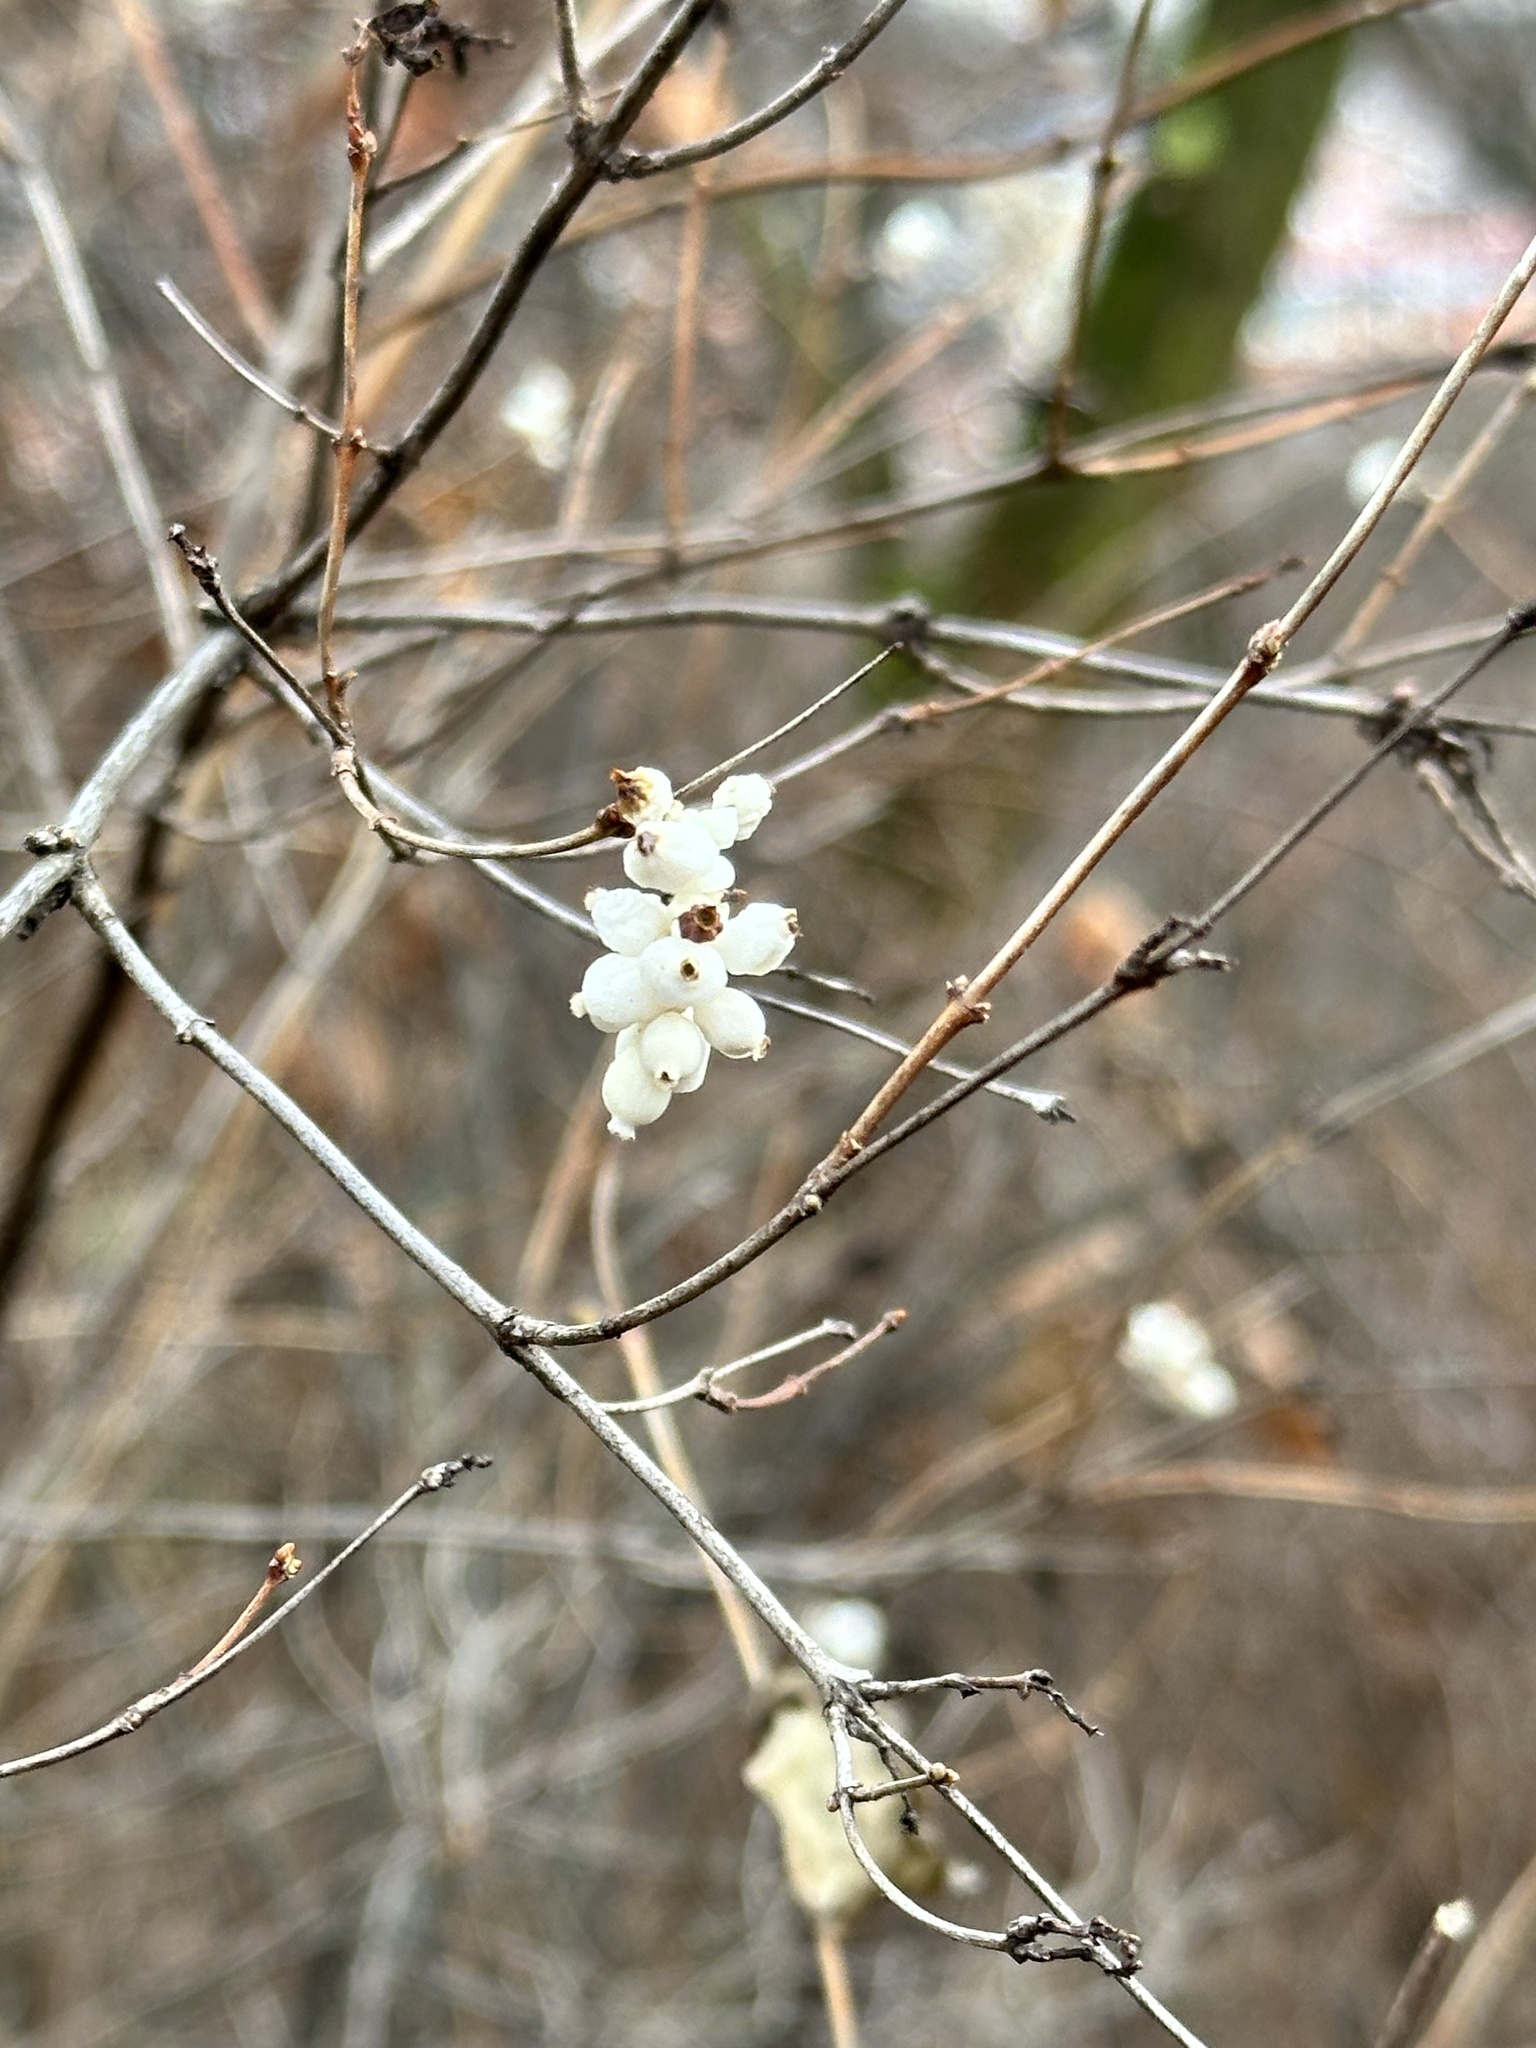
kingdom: Plantae
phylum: Tracheophyta
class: Magnoliopsida
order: Dipsacales
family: Caprifoliaceae
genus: Symphoricarpos
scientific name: Symphoricarpos albus
